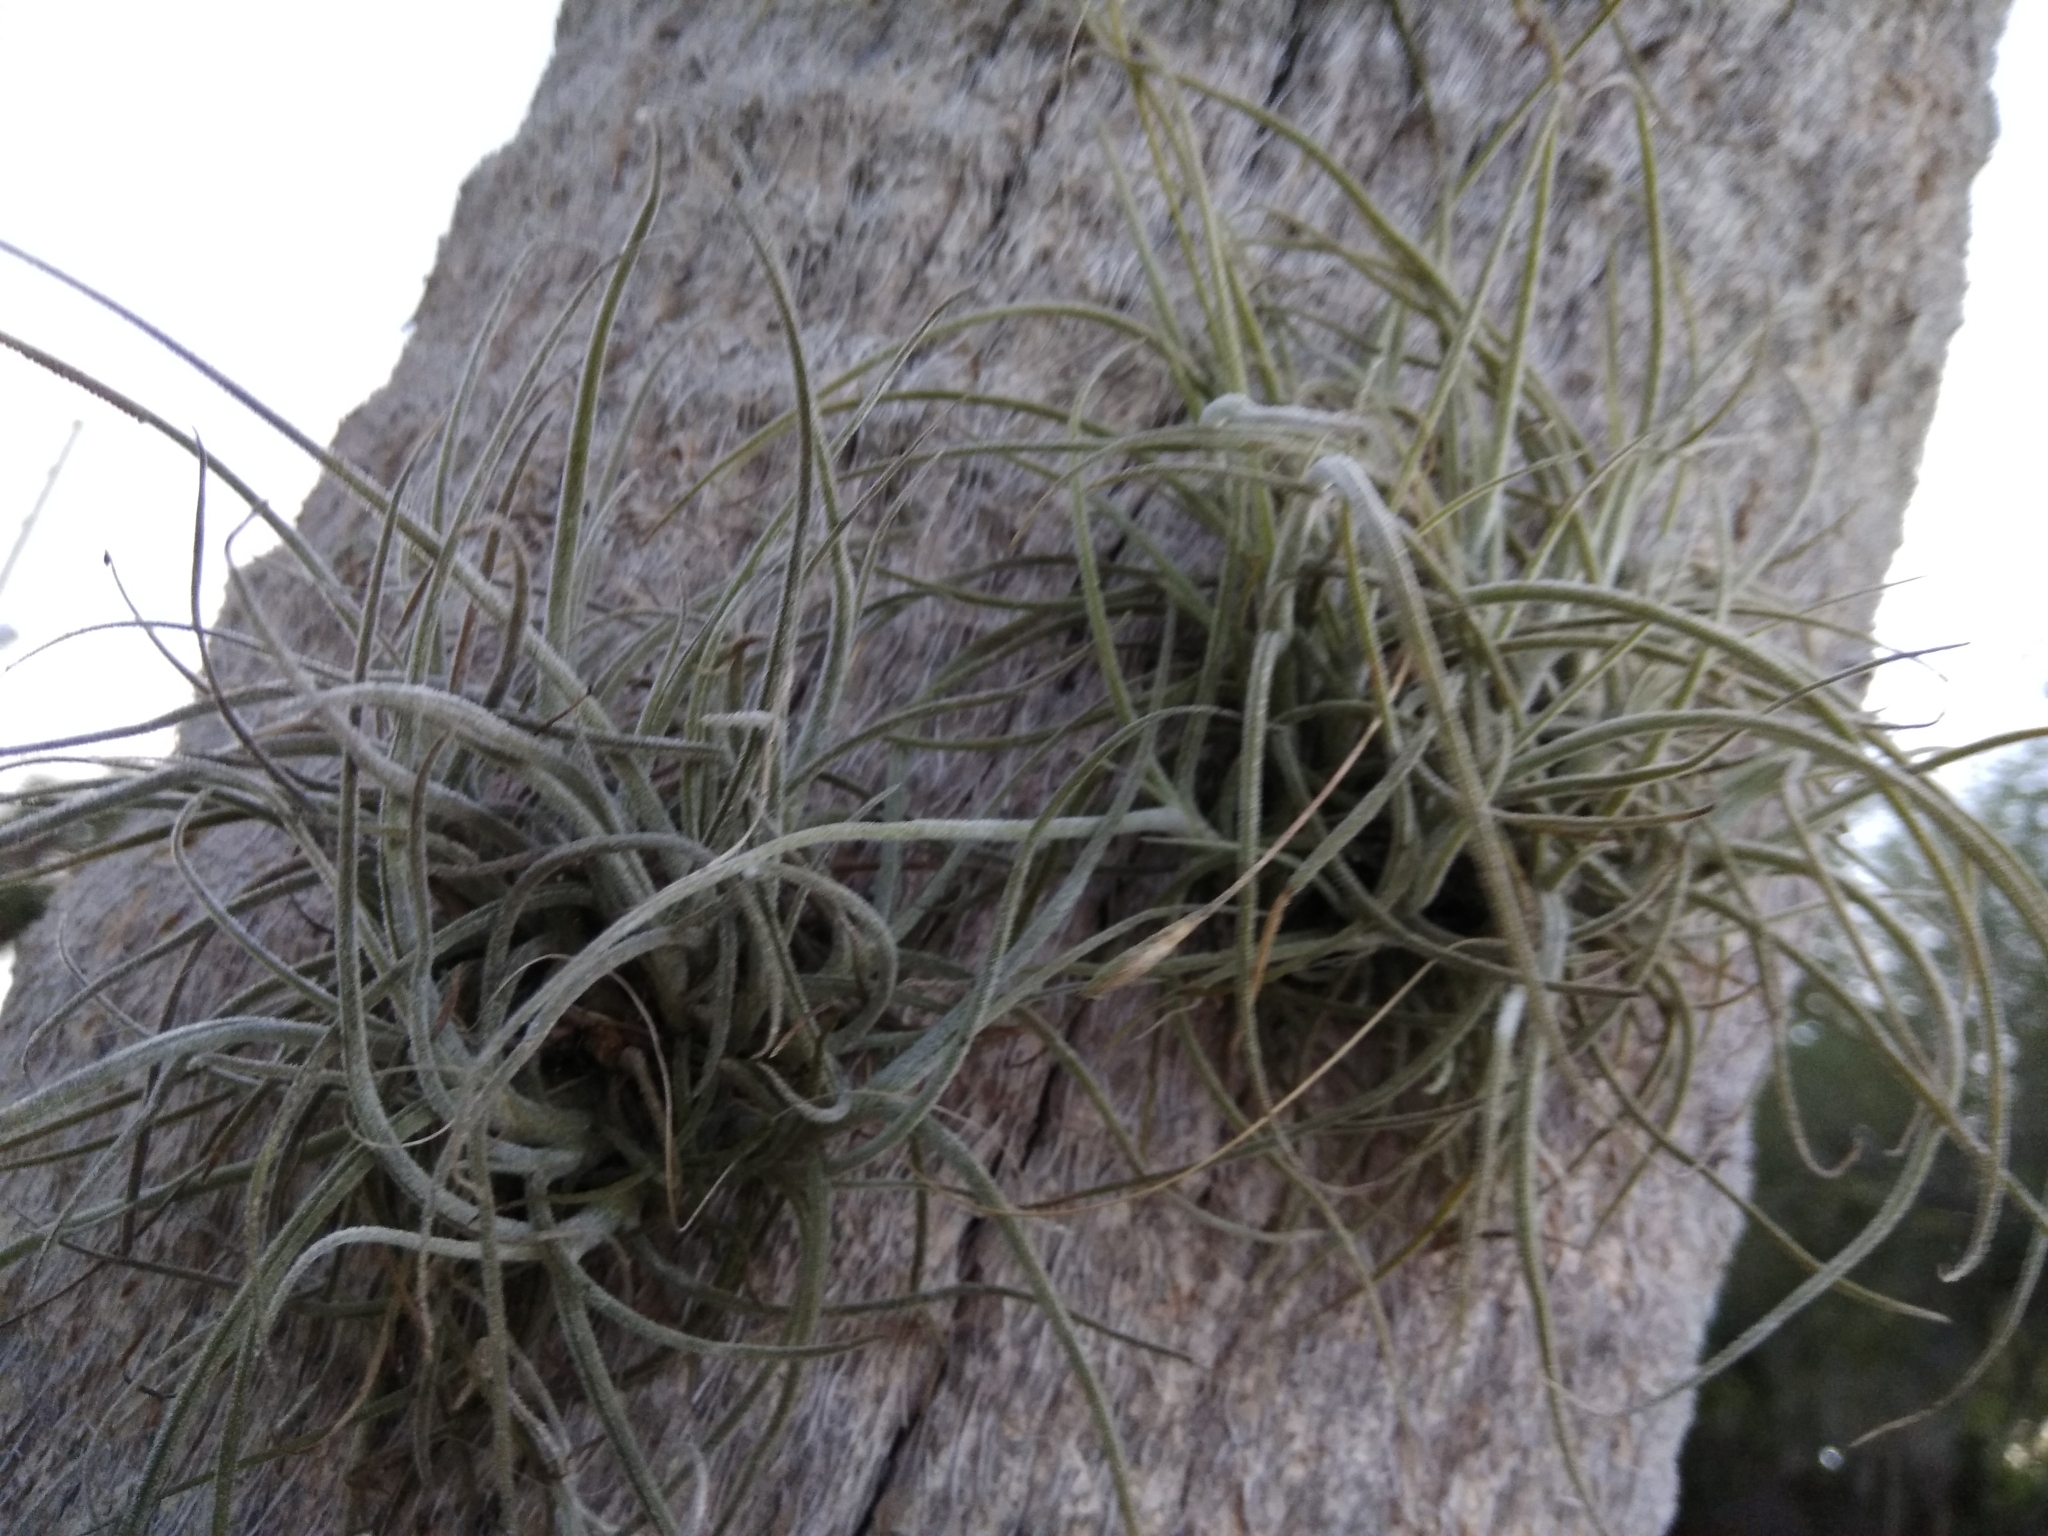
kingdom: Plantae
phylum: Tracheophyta
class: Liliopsida
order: Poales
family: Bromeliaceae
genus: Tillandsia
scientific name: Tillandsia recurvata
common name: Small ballmoss
